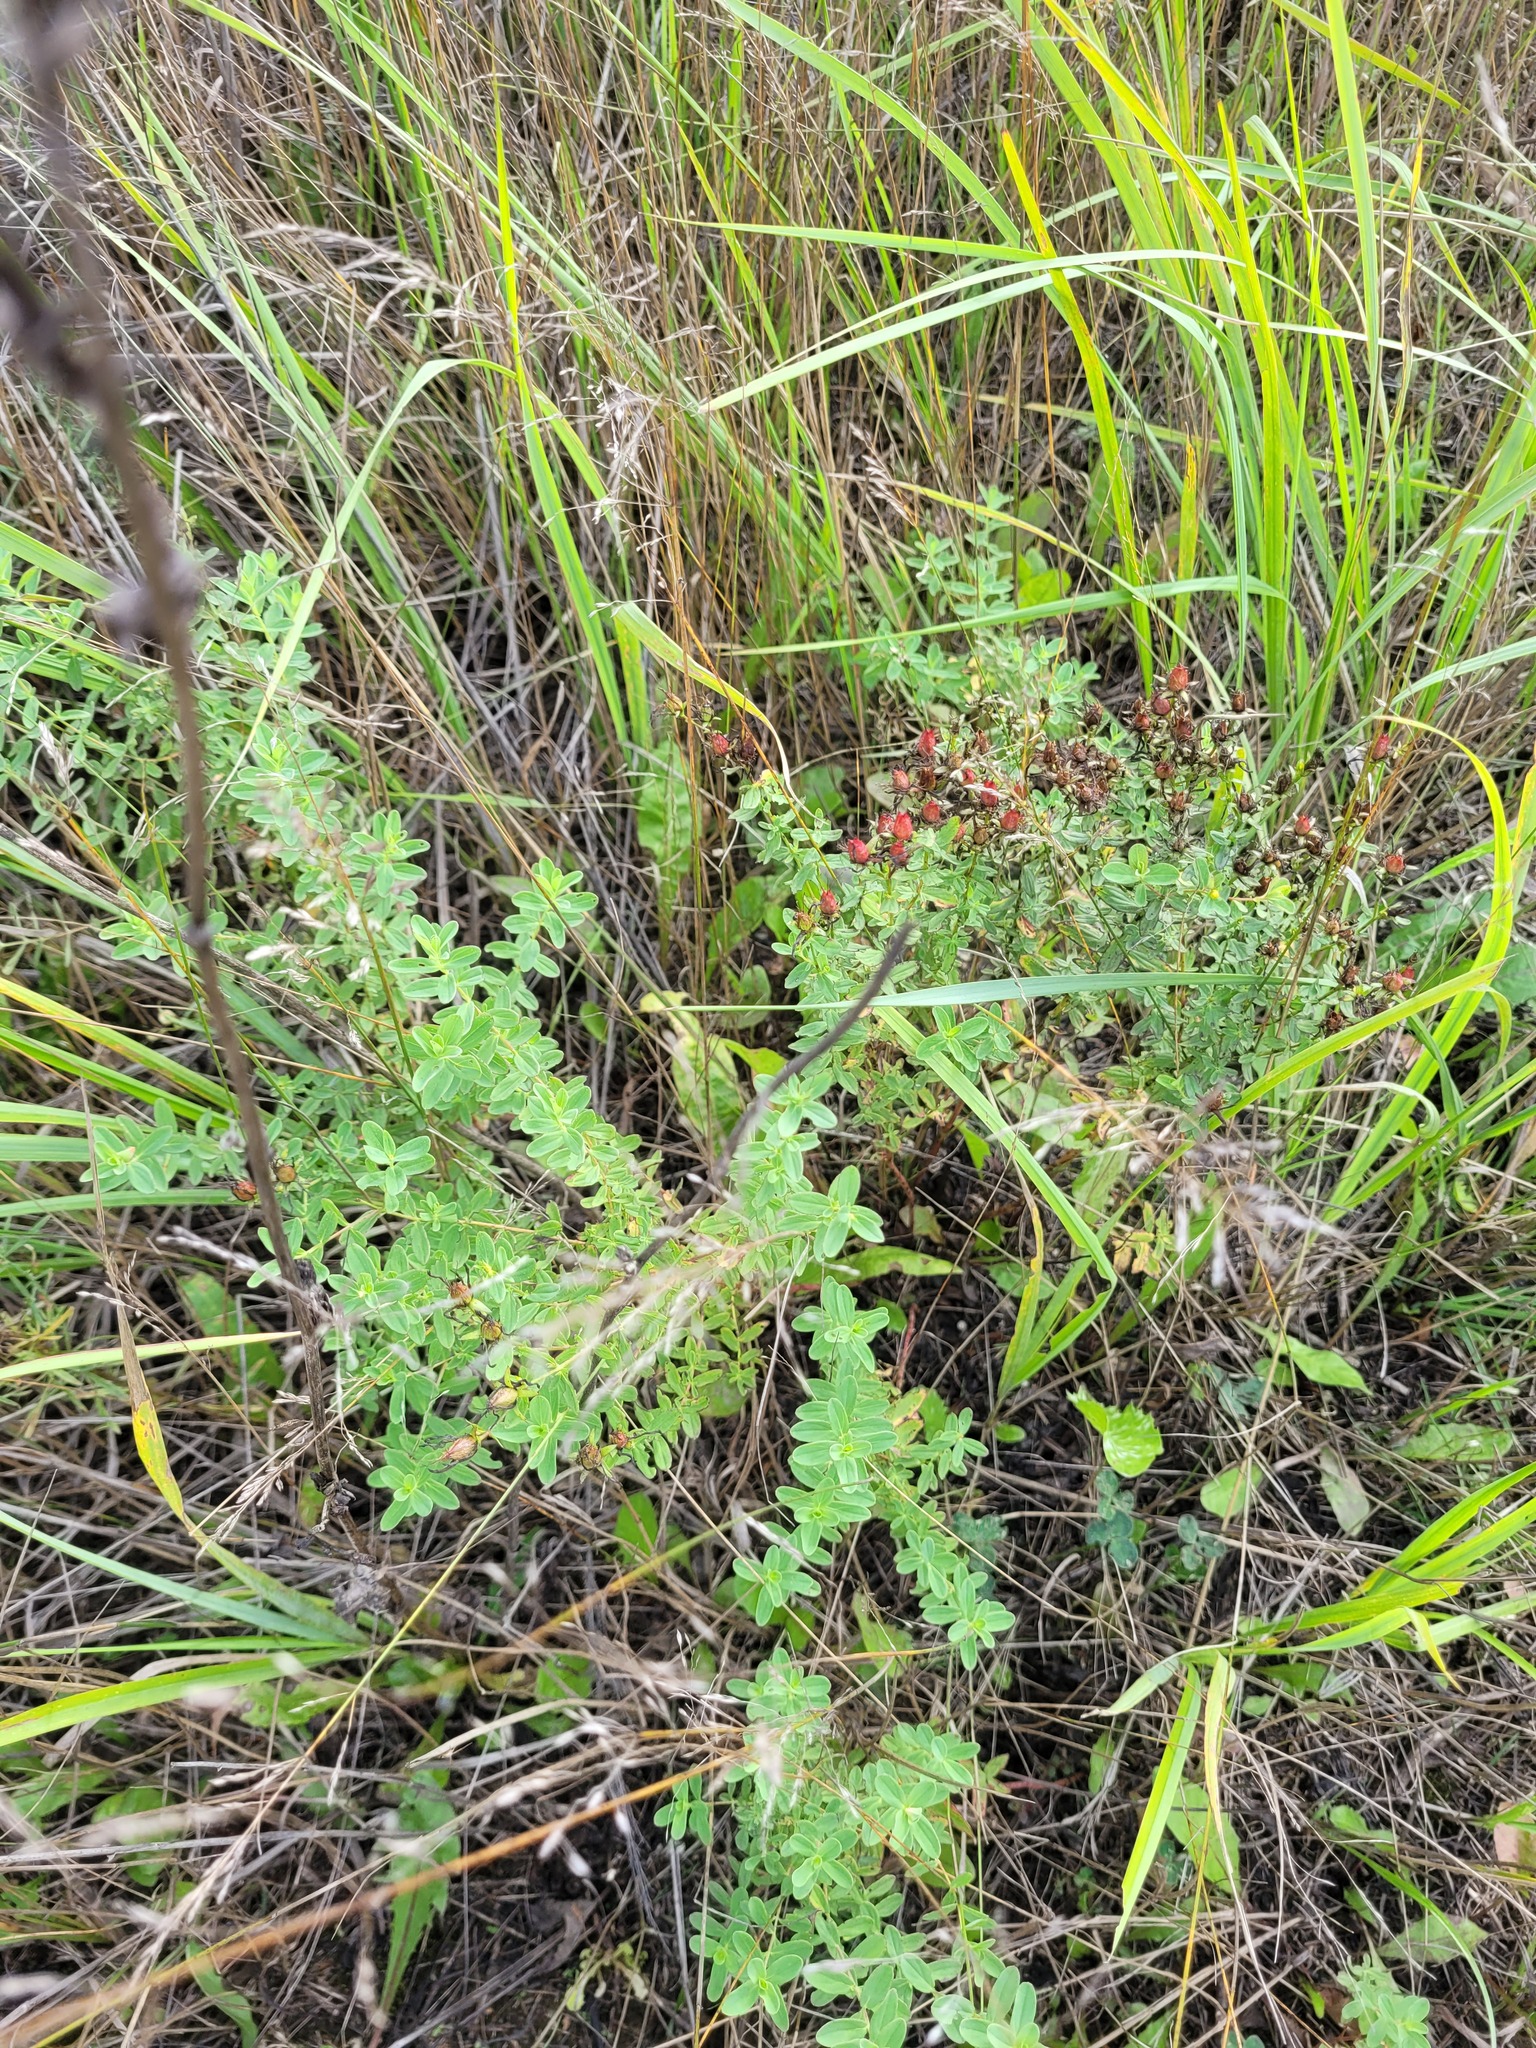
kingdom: Plantae
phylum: Tracheophyta
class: Magnoliopsida
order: Malpighiales
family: Hypericaceae
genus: Hypericum
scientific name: Hypericum perforatum
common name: Common st. johnswort
